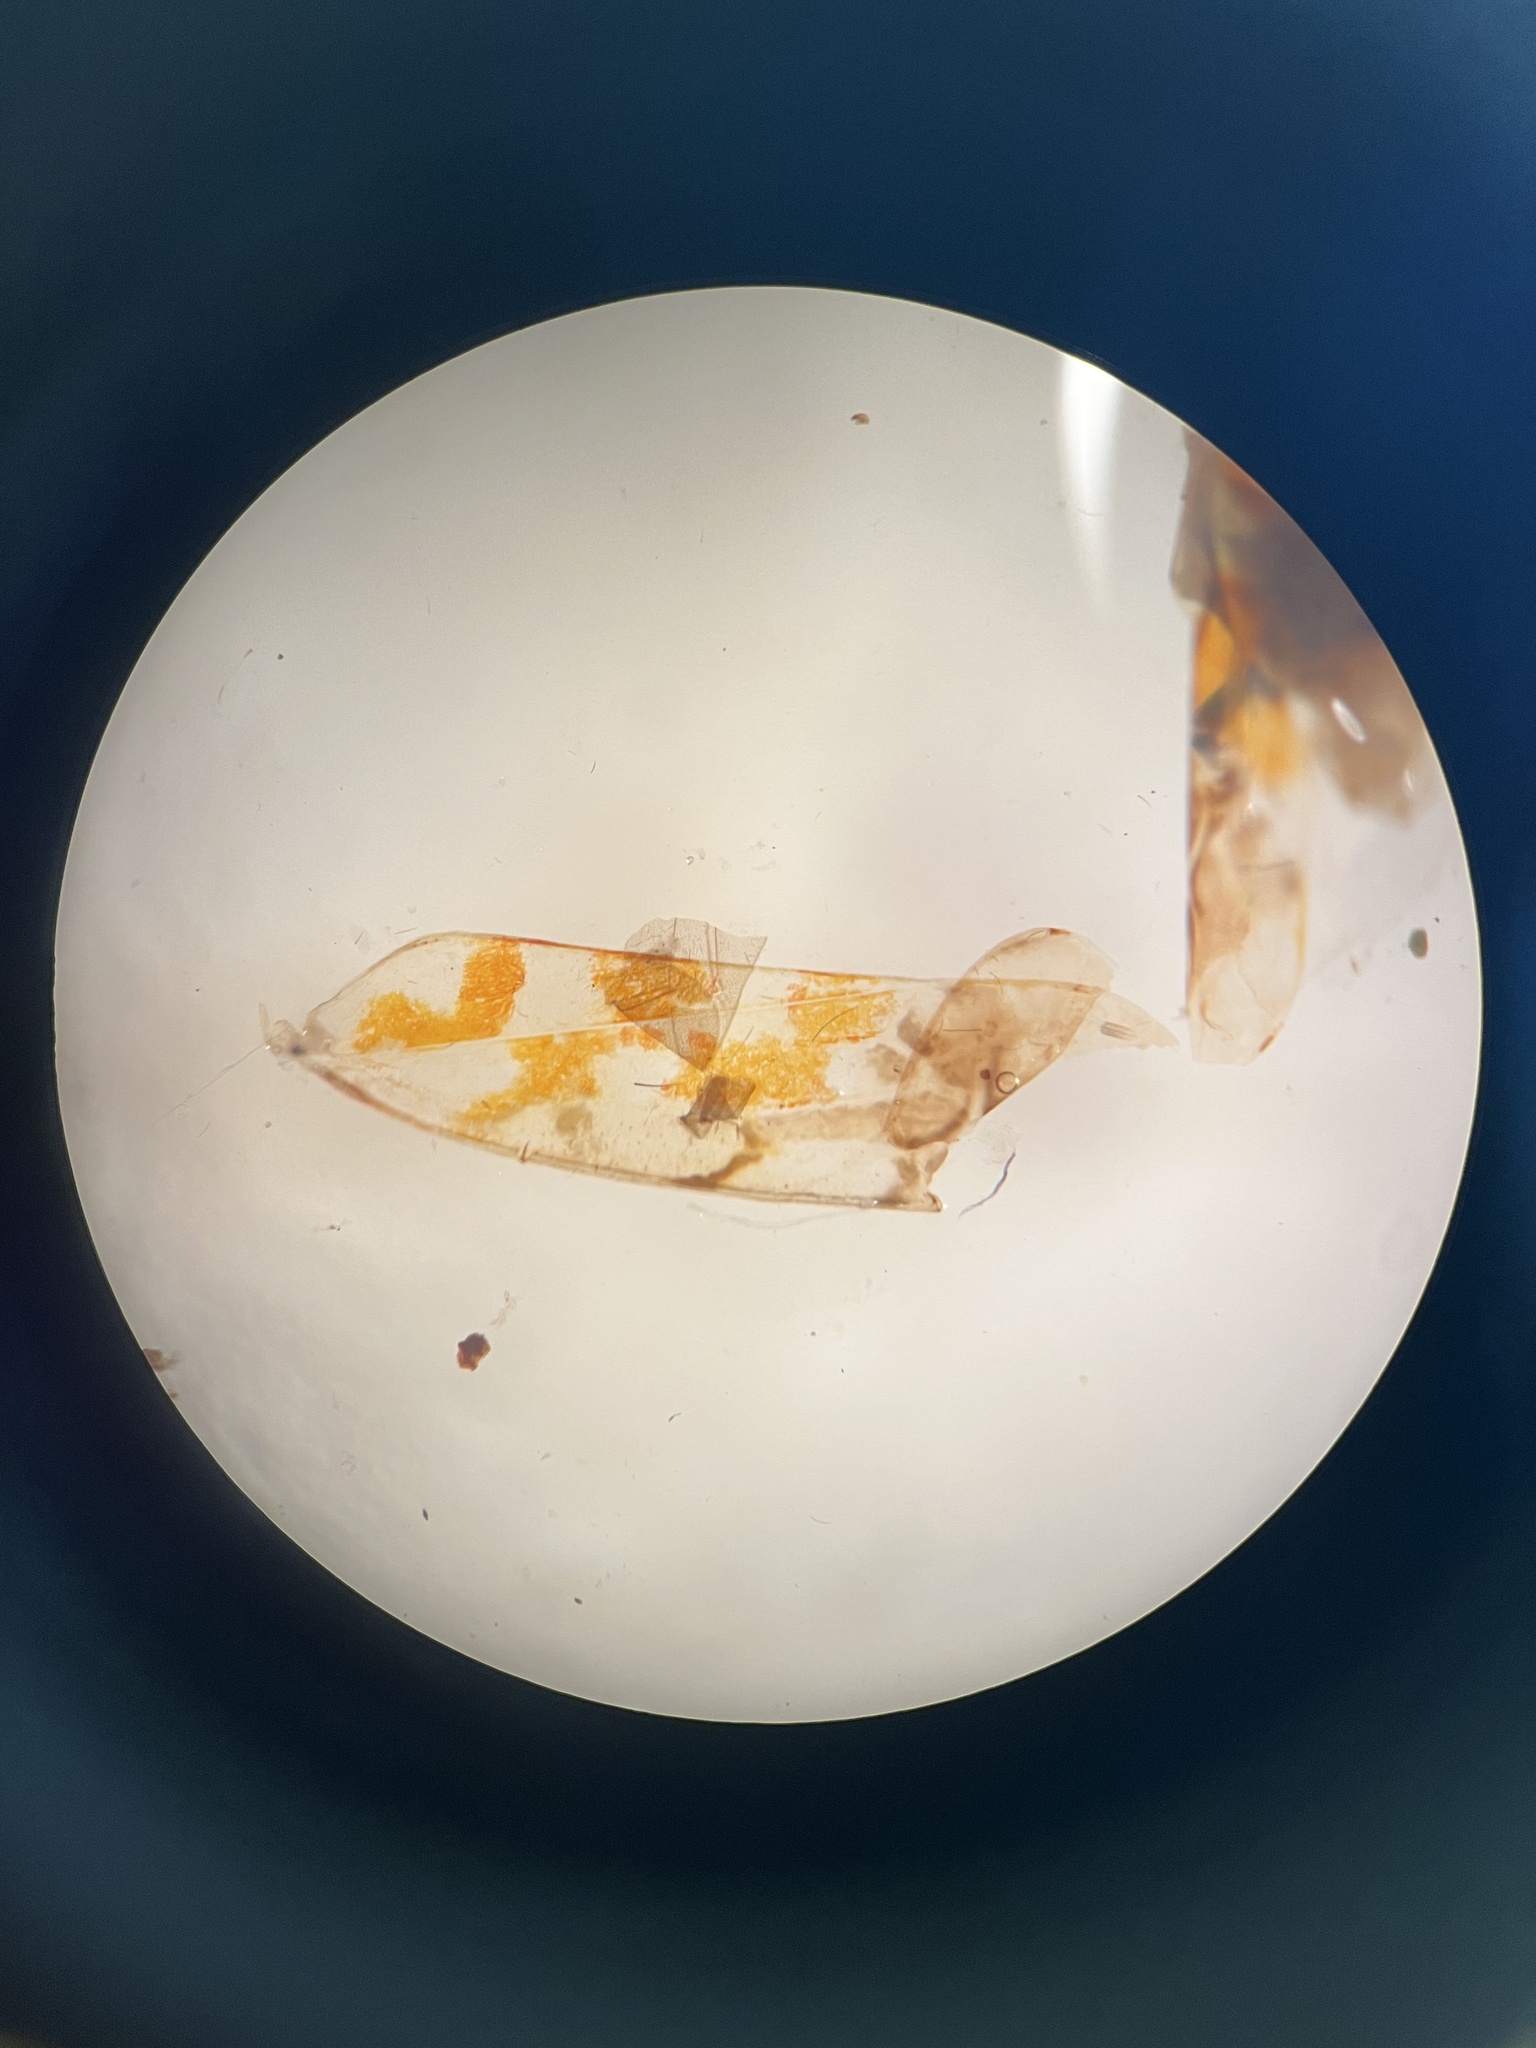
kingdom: Animalia
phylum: Arthropoda
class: Insecta
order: Hemiptera
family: Cicadellidae
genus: Typhlocyba
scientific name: Typhlocyba quercus
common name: Leafhopper
